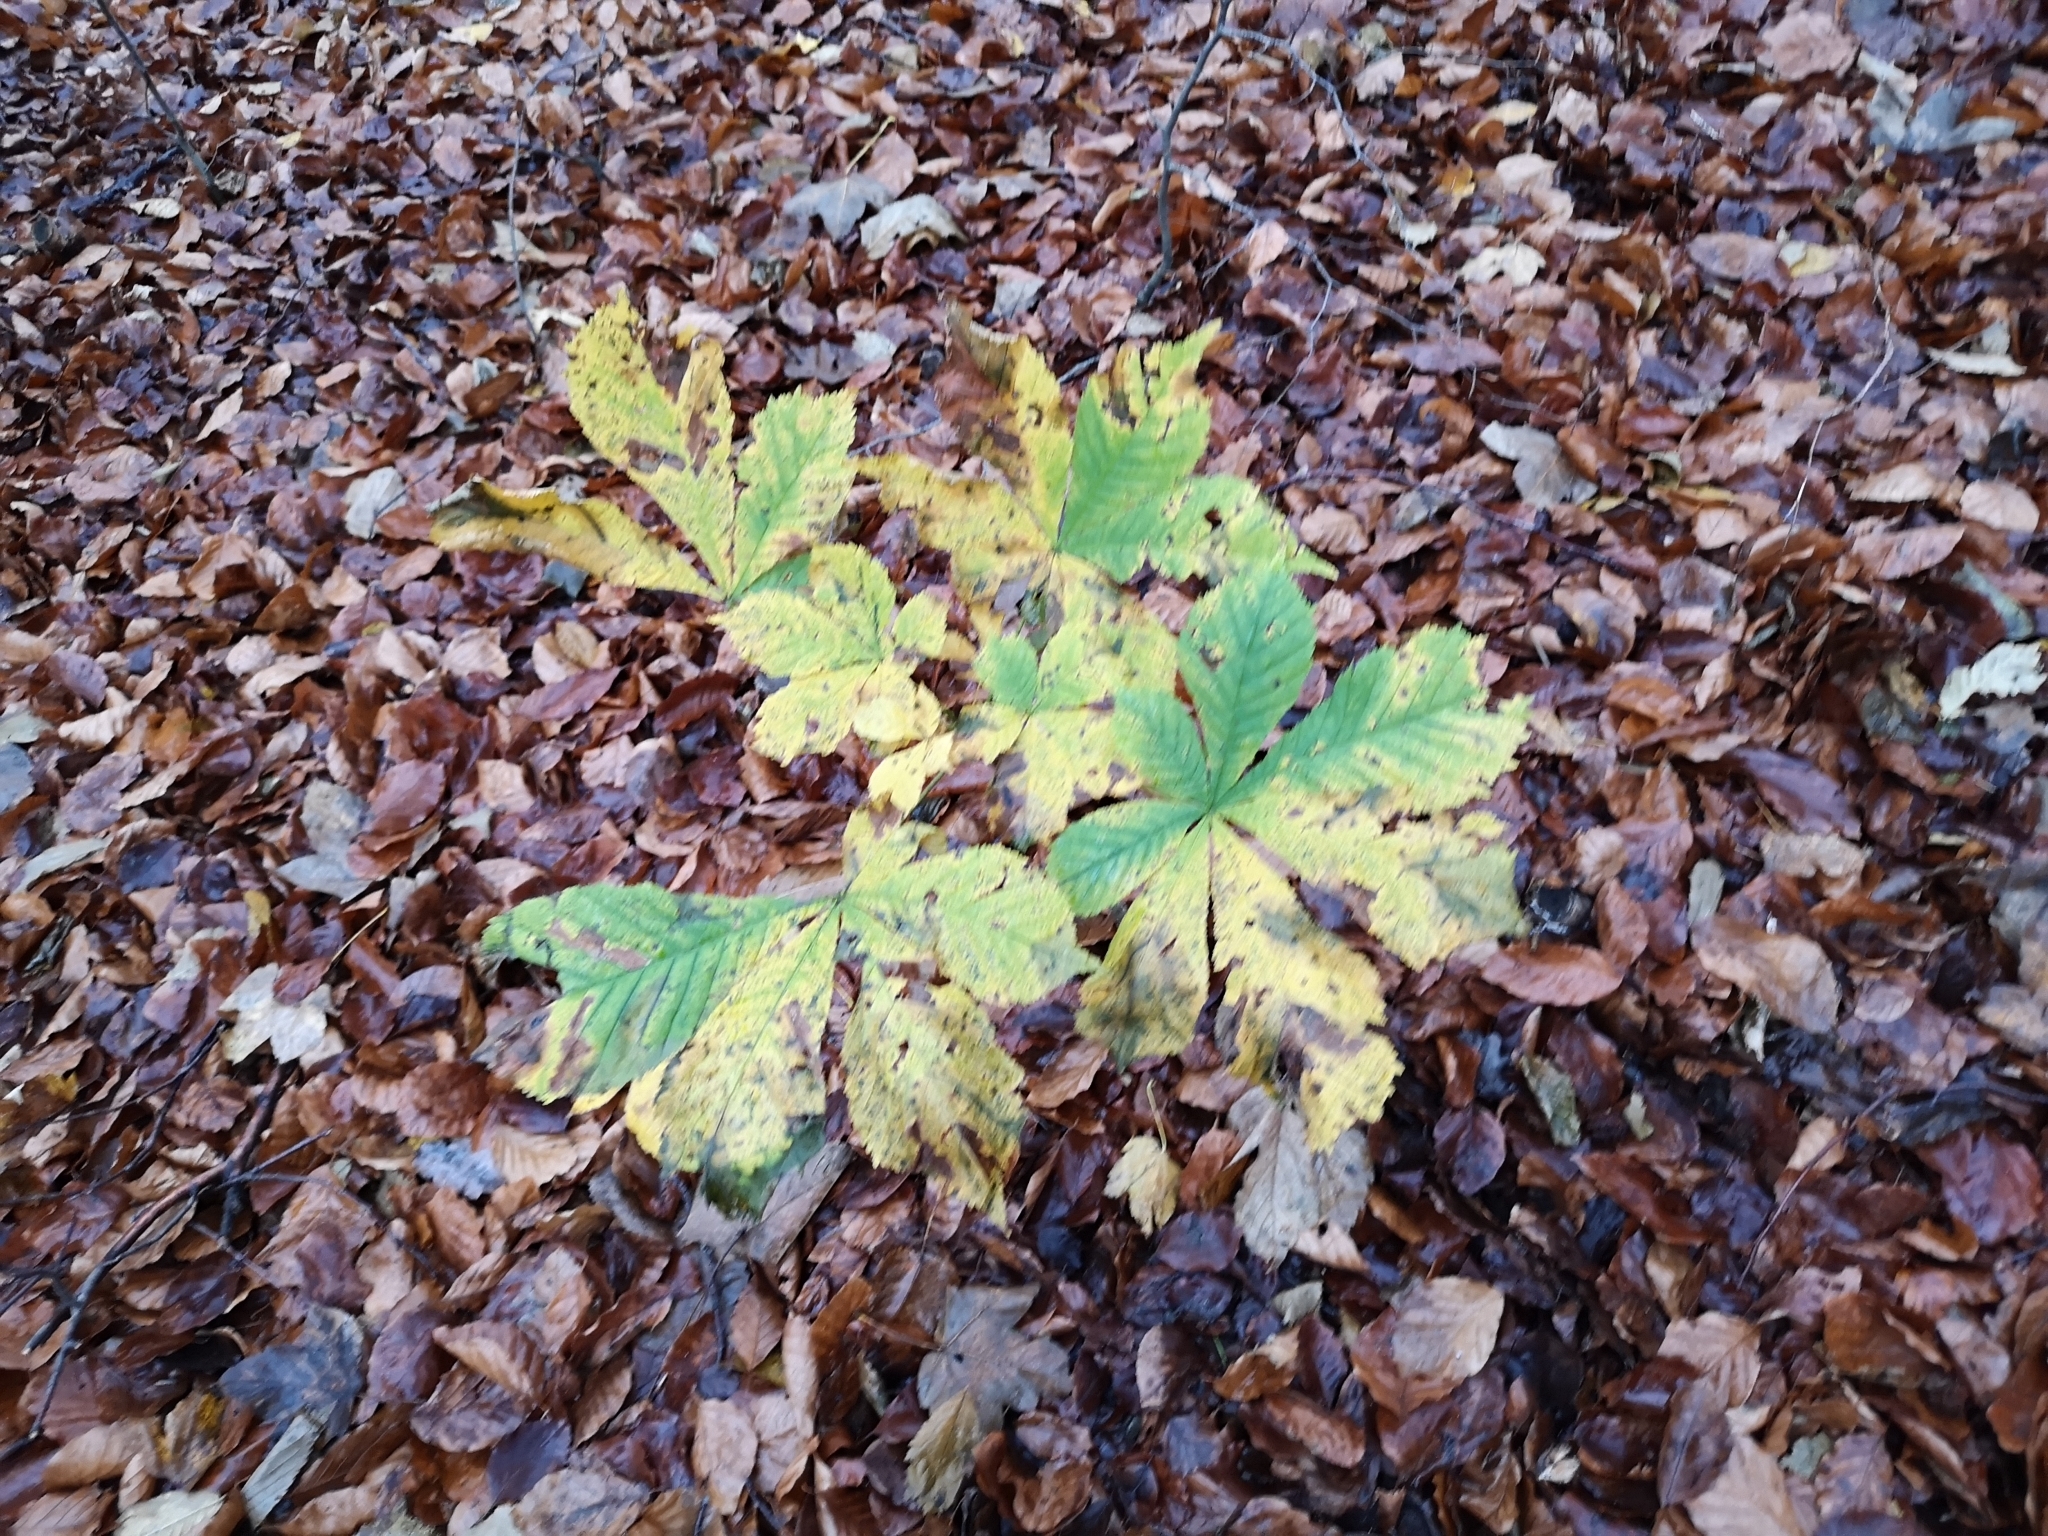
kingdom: Plantae
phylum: Tracheophyta
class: Magnoliopsida
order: Sapindales
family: Sapindaceae
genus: Aesculus
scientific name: Aesculus hippocastanum
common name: Horse-chestnut
